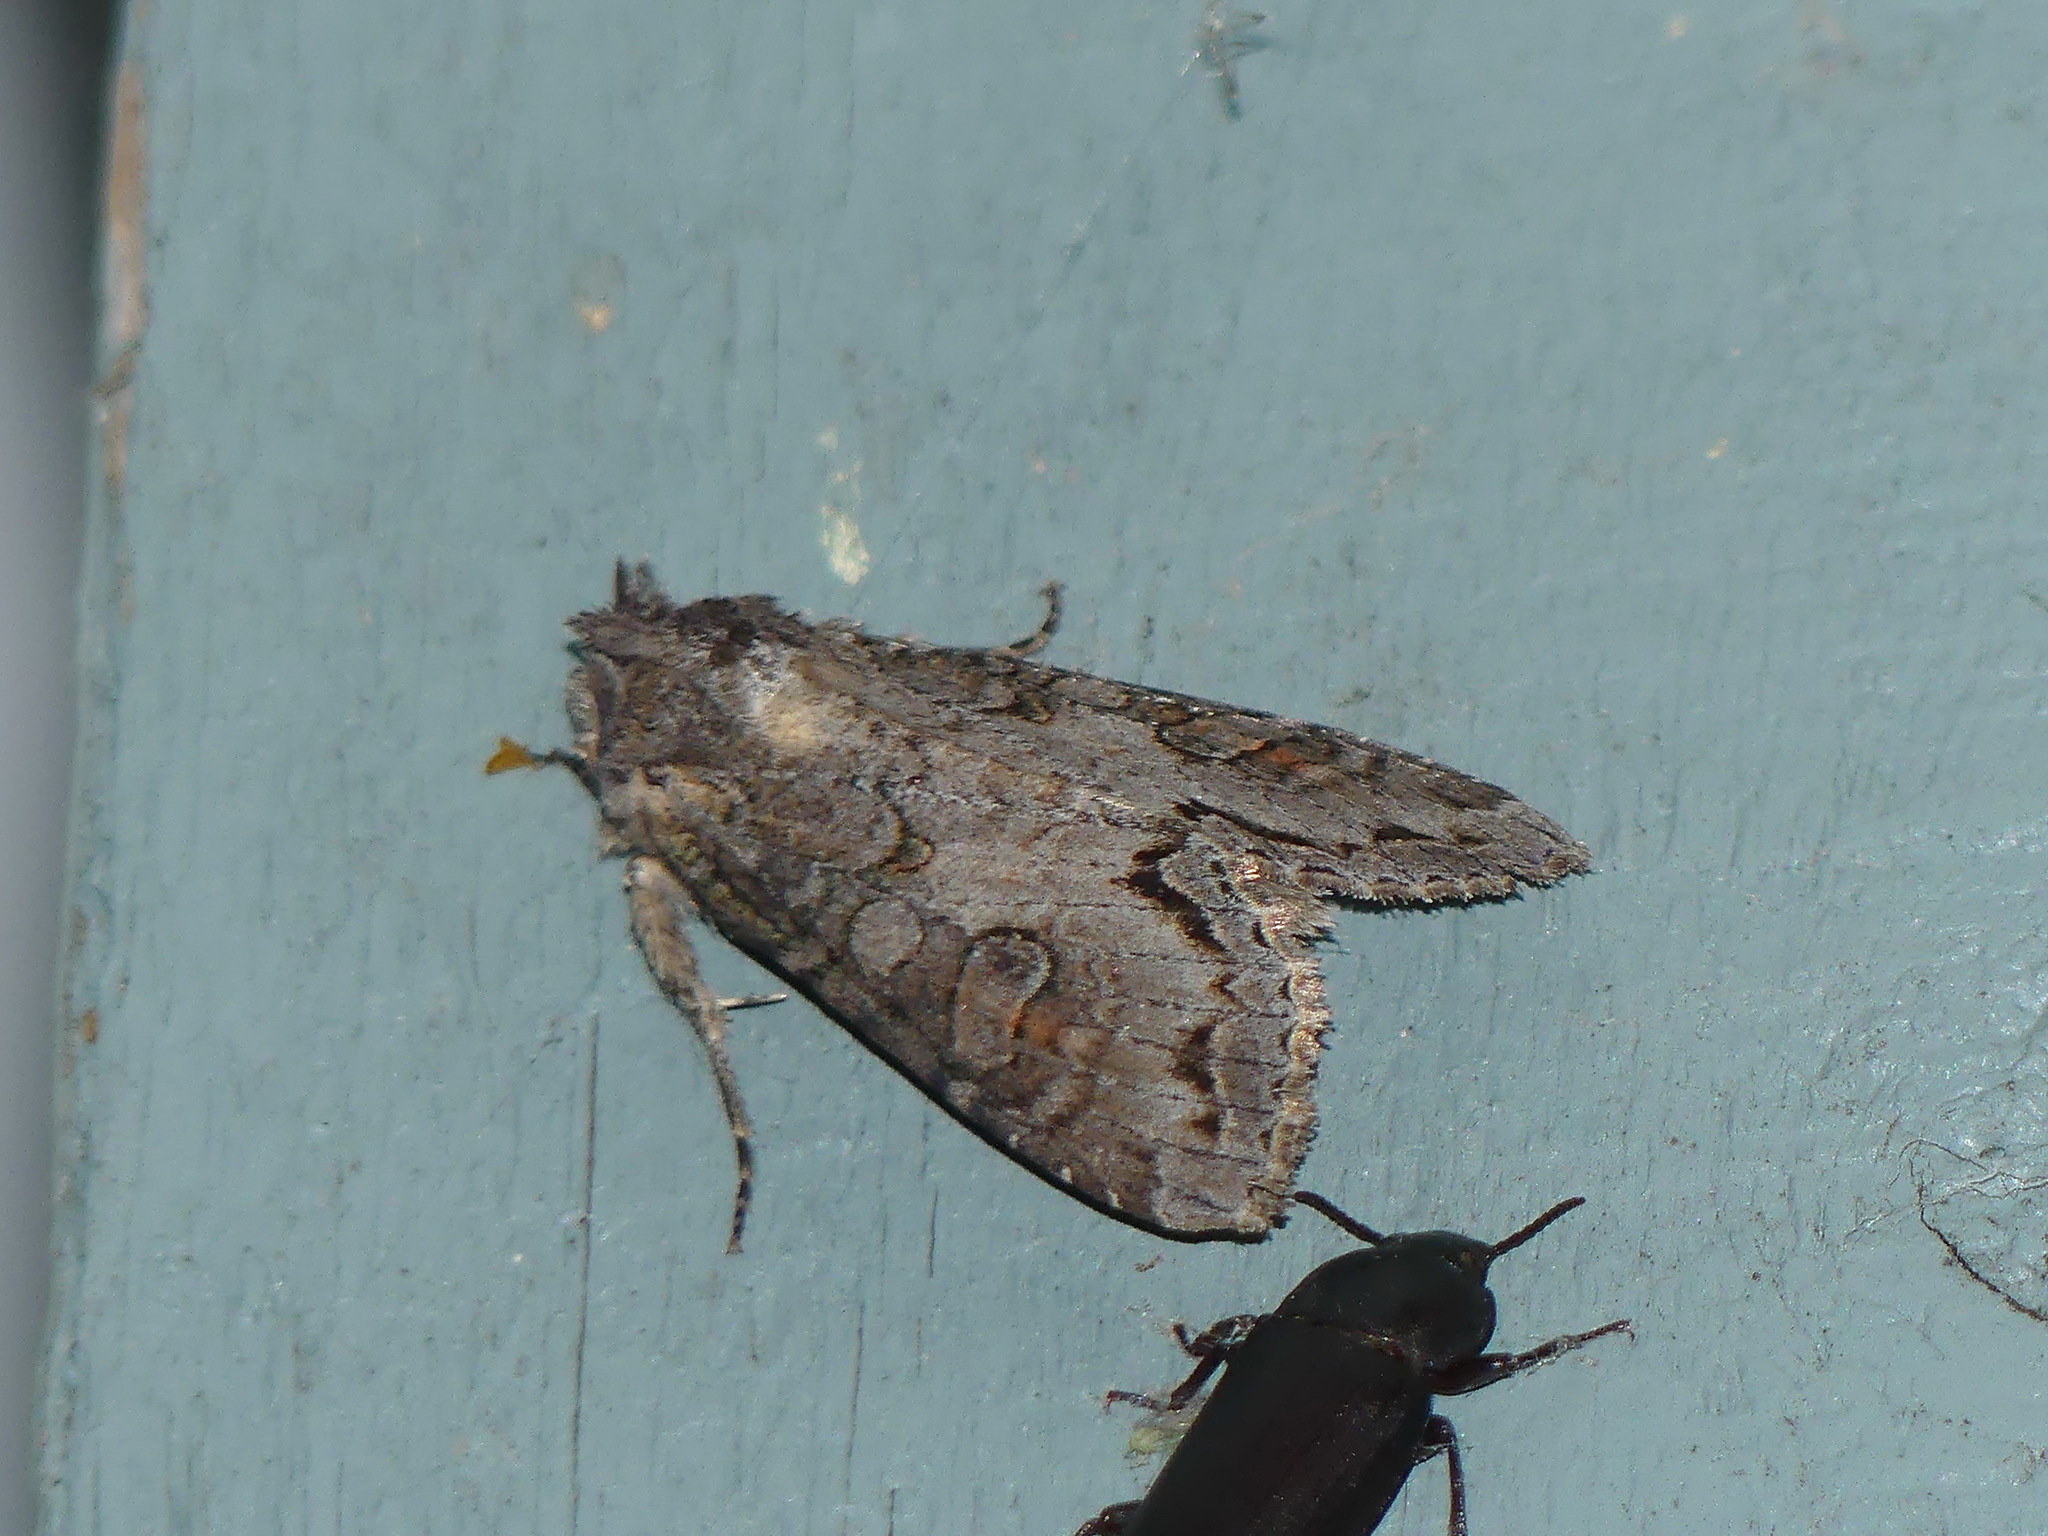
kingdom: Animalia
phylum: Arthropoda
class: Insecta
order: Lepidoptera
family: Noctuidae
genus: Polia
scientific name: Polia purpurissata
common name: Purple arches moth
